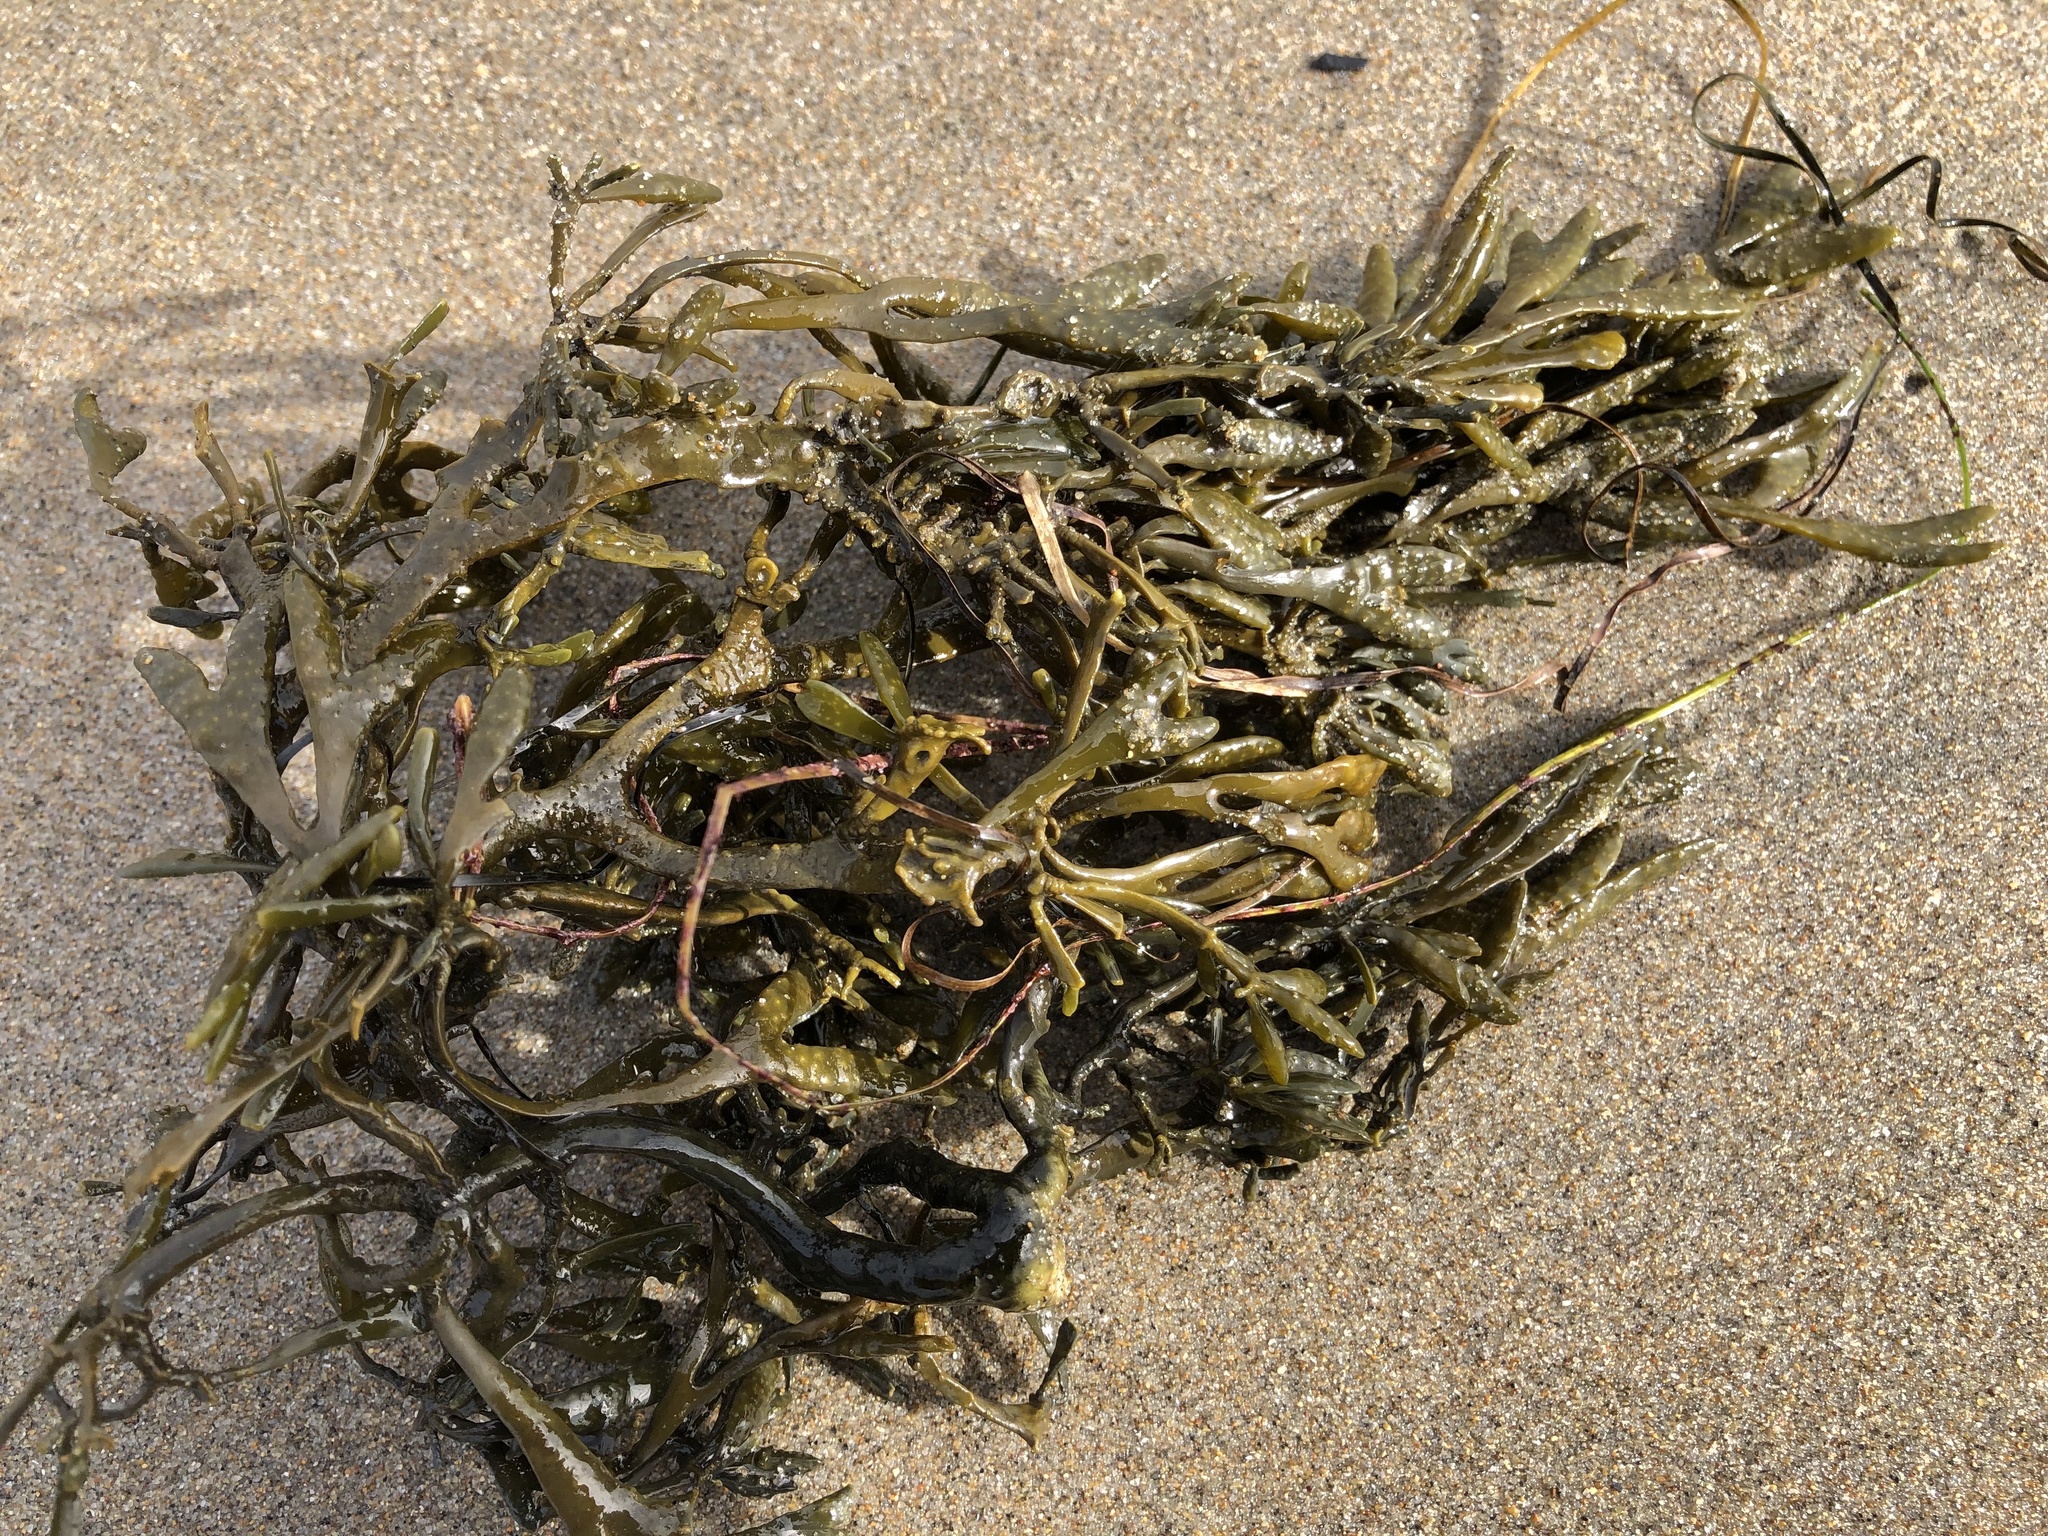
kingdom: Chromista
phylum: Ochrophyta
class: Phaeophyceae
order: Fucales
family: Fucaceae
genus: Silvetia
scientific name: Silvetia
